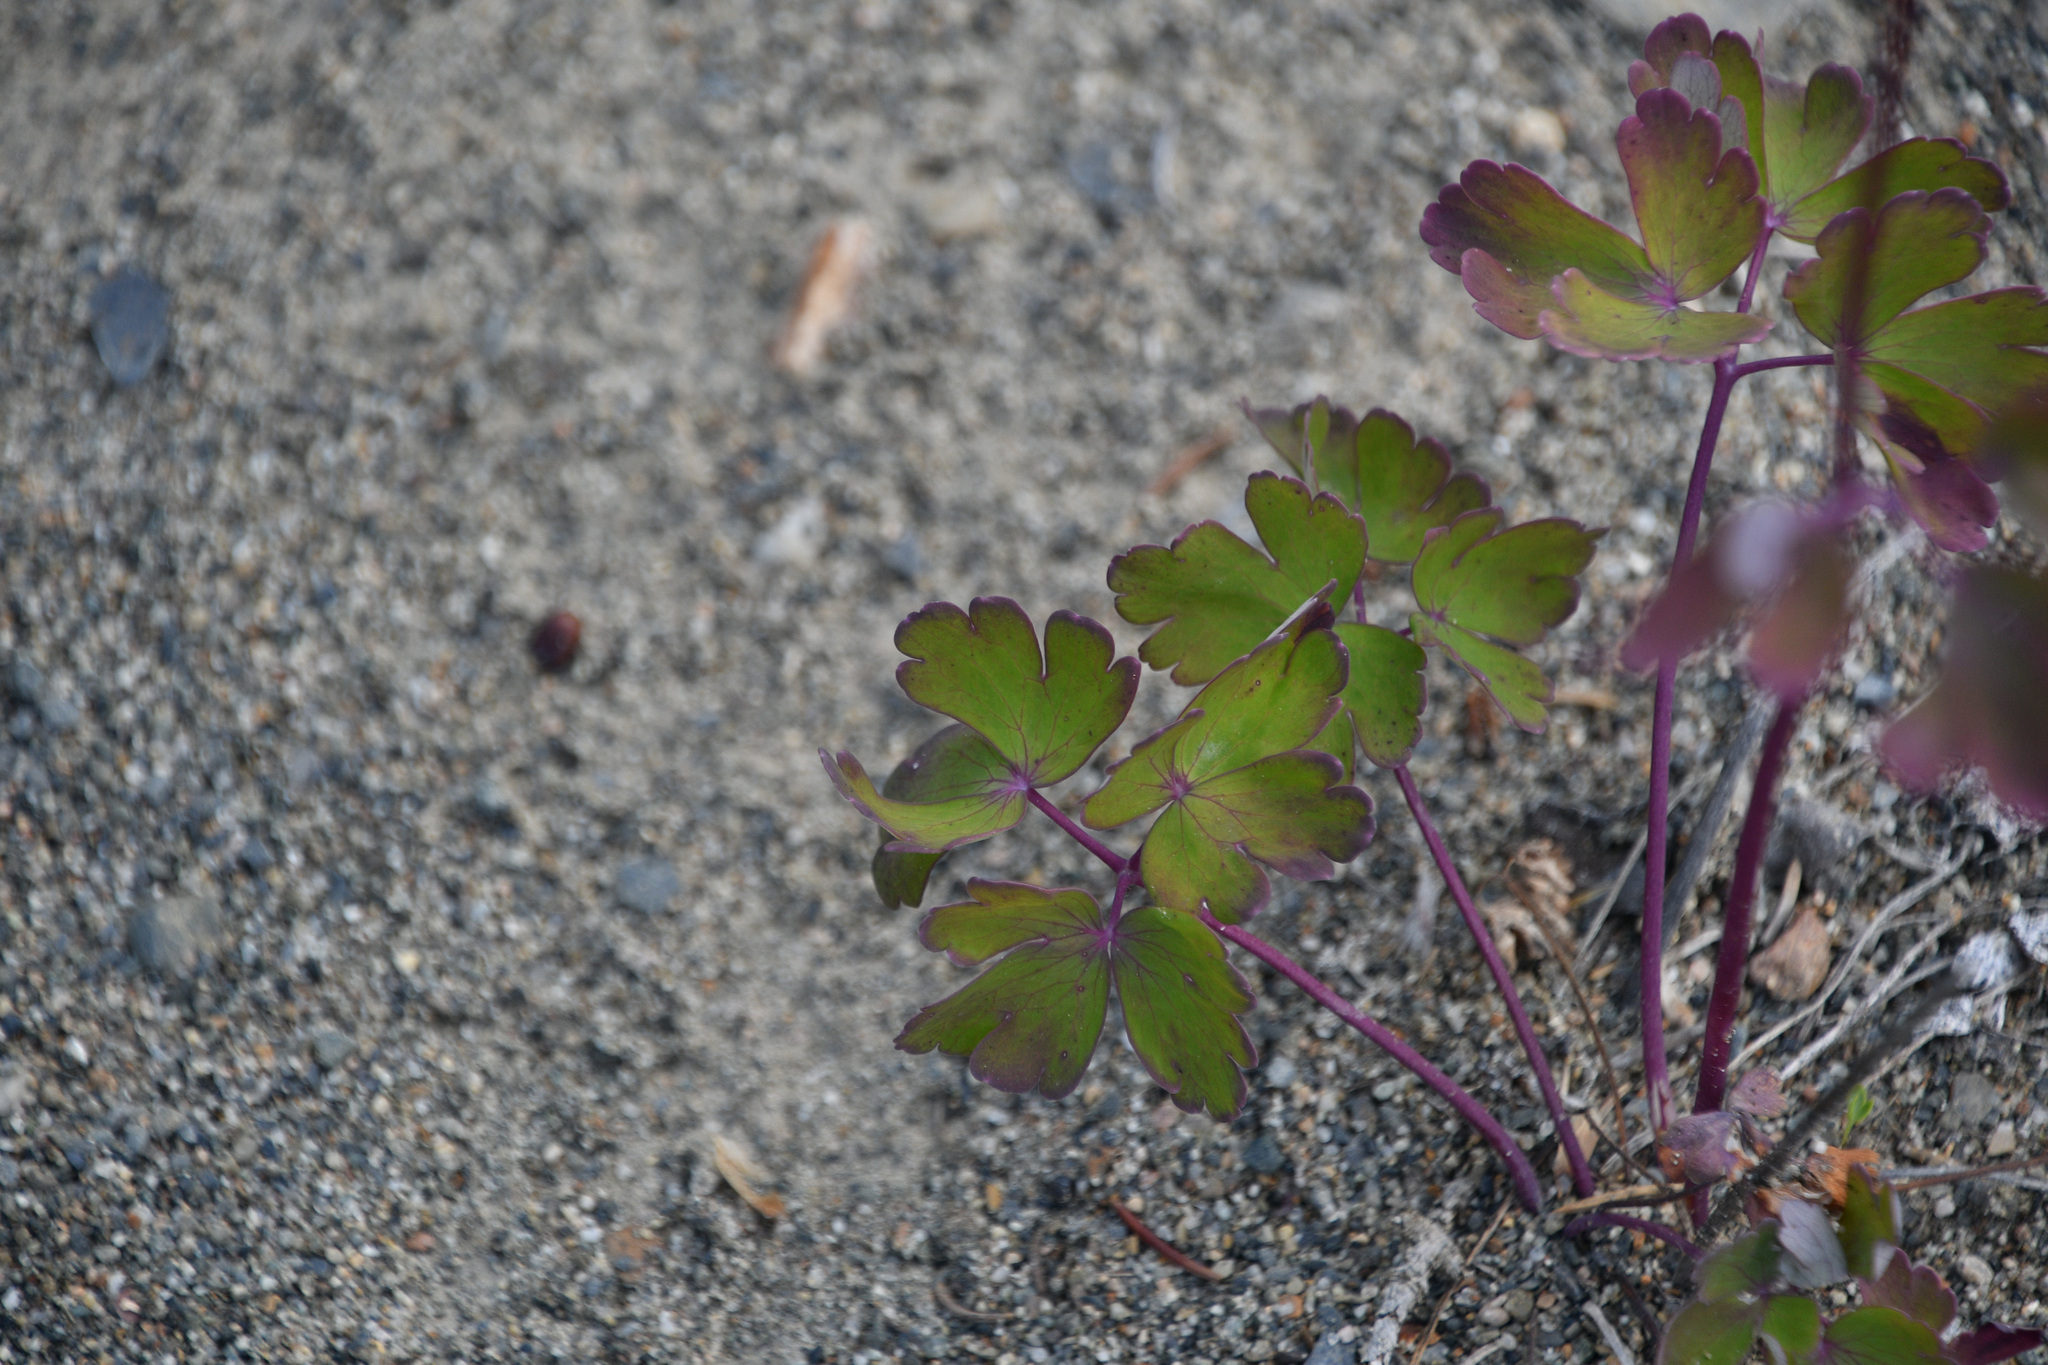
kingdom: Plantae
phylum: Tracheophyta
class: Magnoliopsida
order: Ranunculales
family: Ranunculaceae
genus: Aquilegia
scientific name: Aquilegia brevistyla
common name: Yukon columbine
